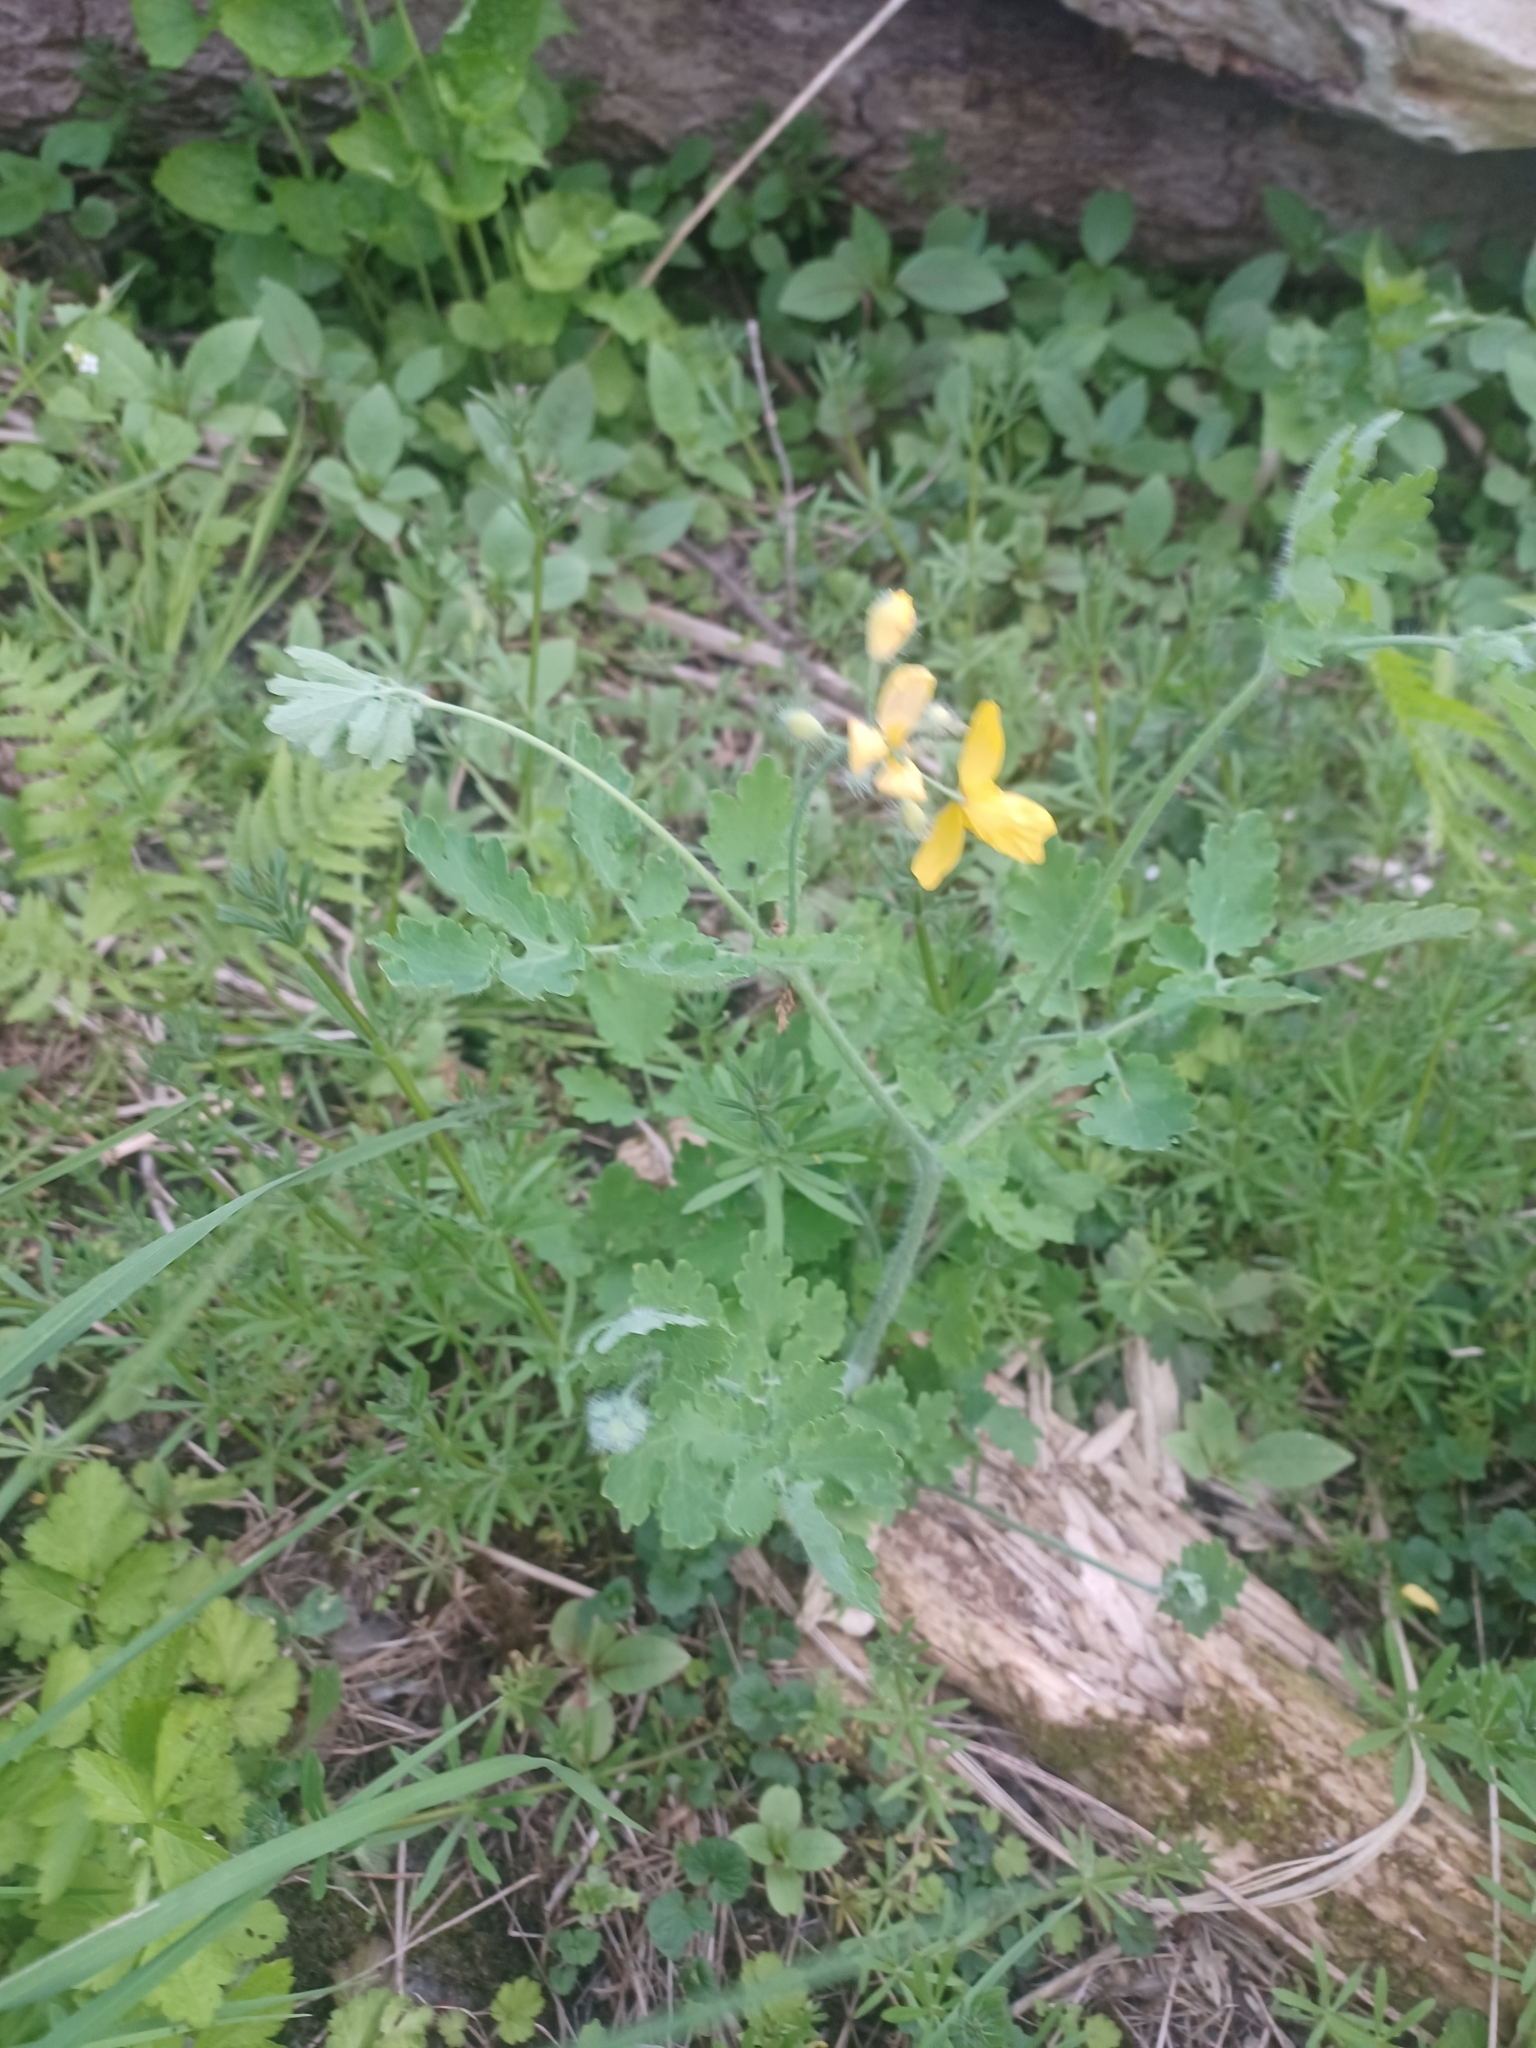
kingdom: Plantae
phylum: Tracheophyta
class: Magnoliopsida
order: Ranunculales
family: Papaveraceae
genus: Chelidonium
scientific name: Chelidonium majus
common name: Greater celandine
